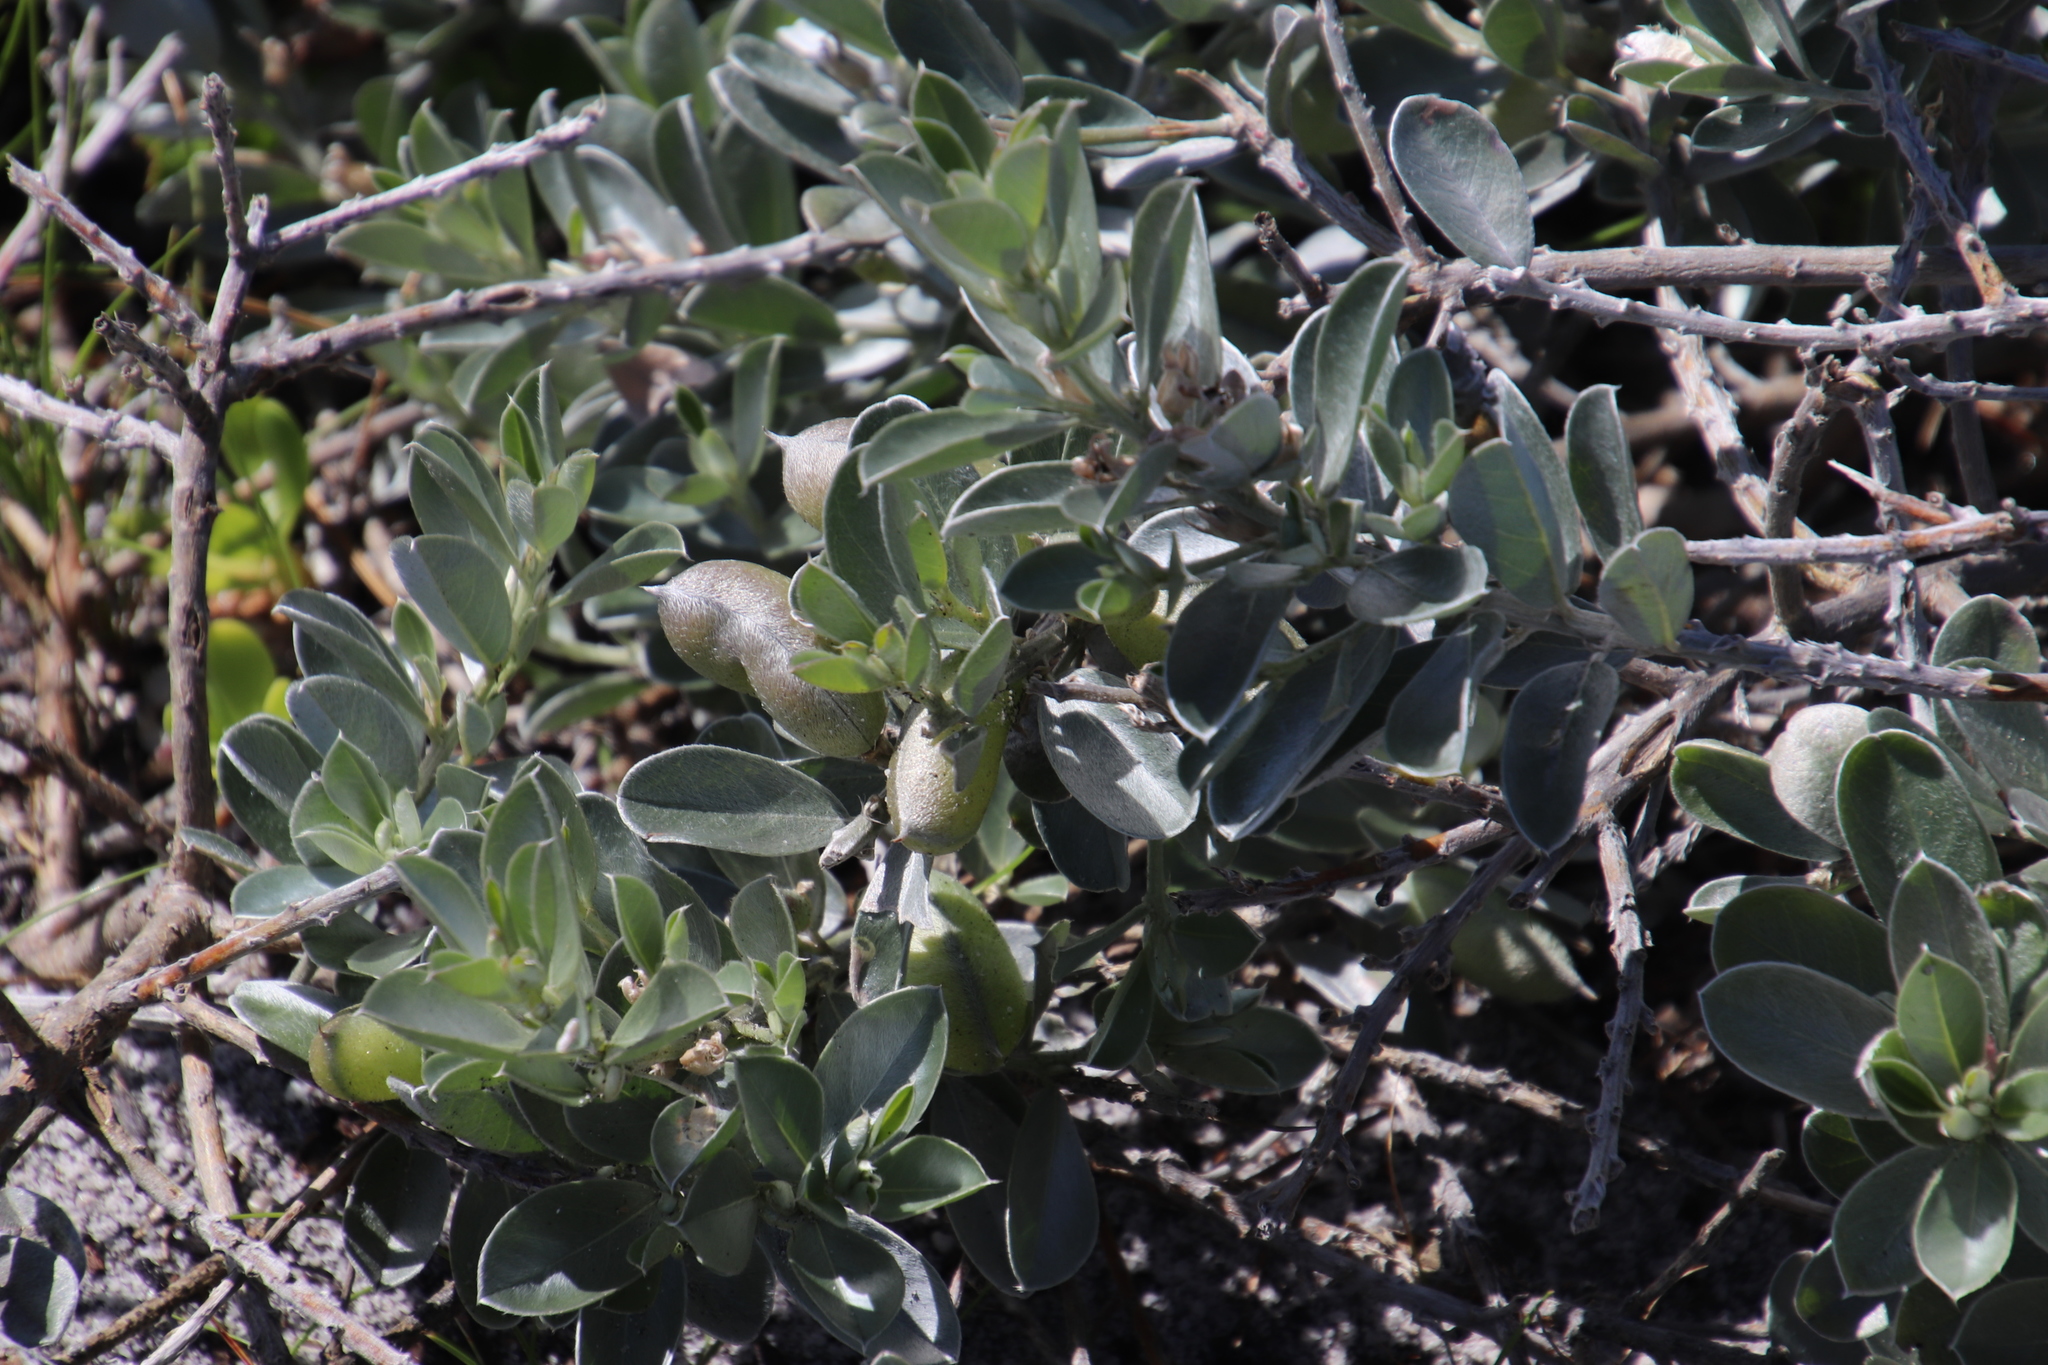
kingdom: Plantae
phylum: Tracheophyta
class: Magnoliopsida
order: Fabales
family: Fabaceae
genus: Podalyria
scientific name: Podalyria sericea
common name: Silver podalyria
